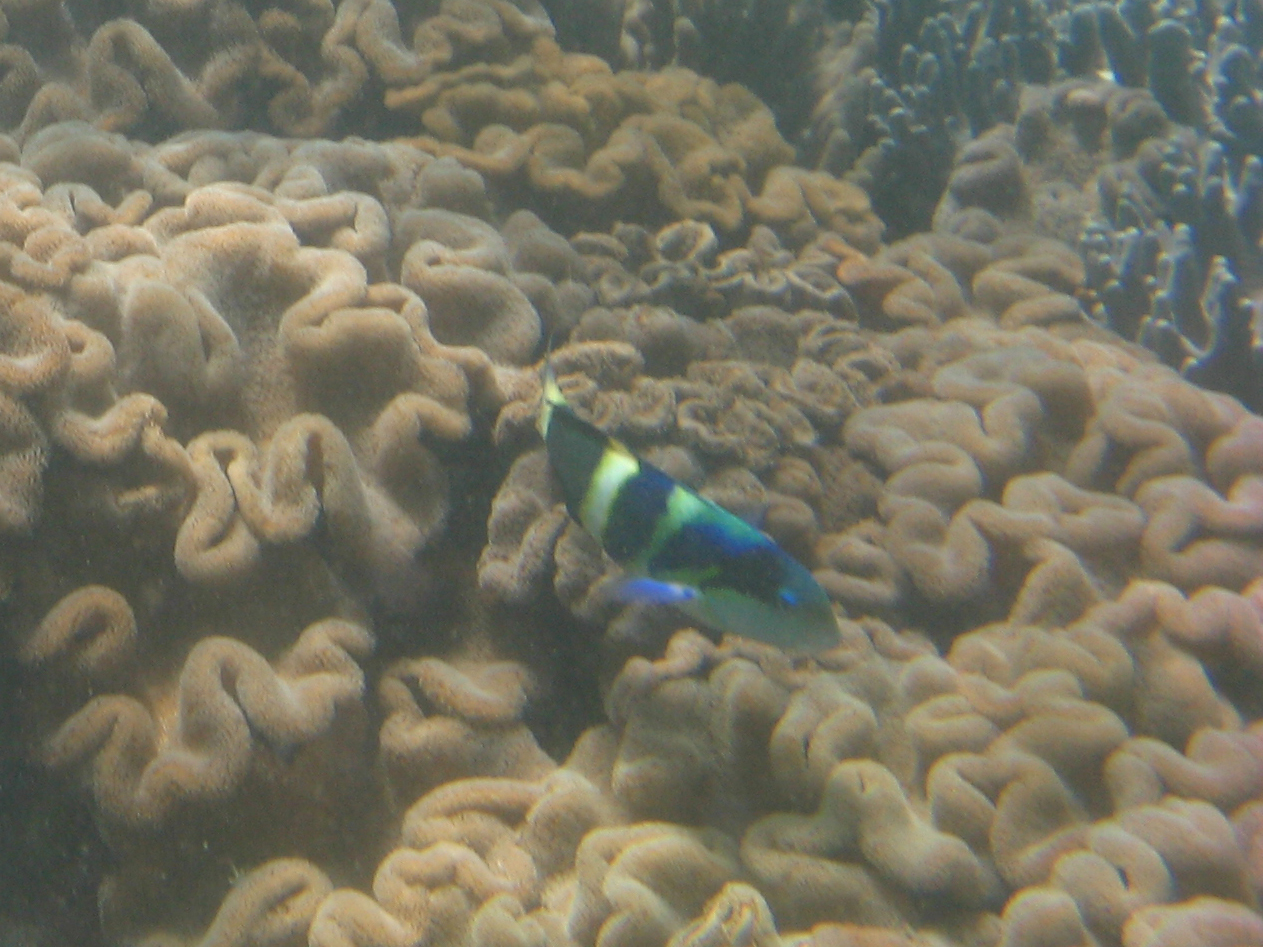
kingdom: Animalia
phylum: Chordata
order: Perciformes
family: Labridae
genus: Thalassoma
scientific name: Thalassoma nigrofasciatum
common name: Black-barred wrasse
